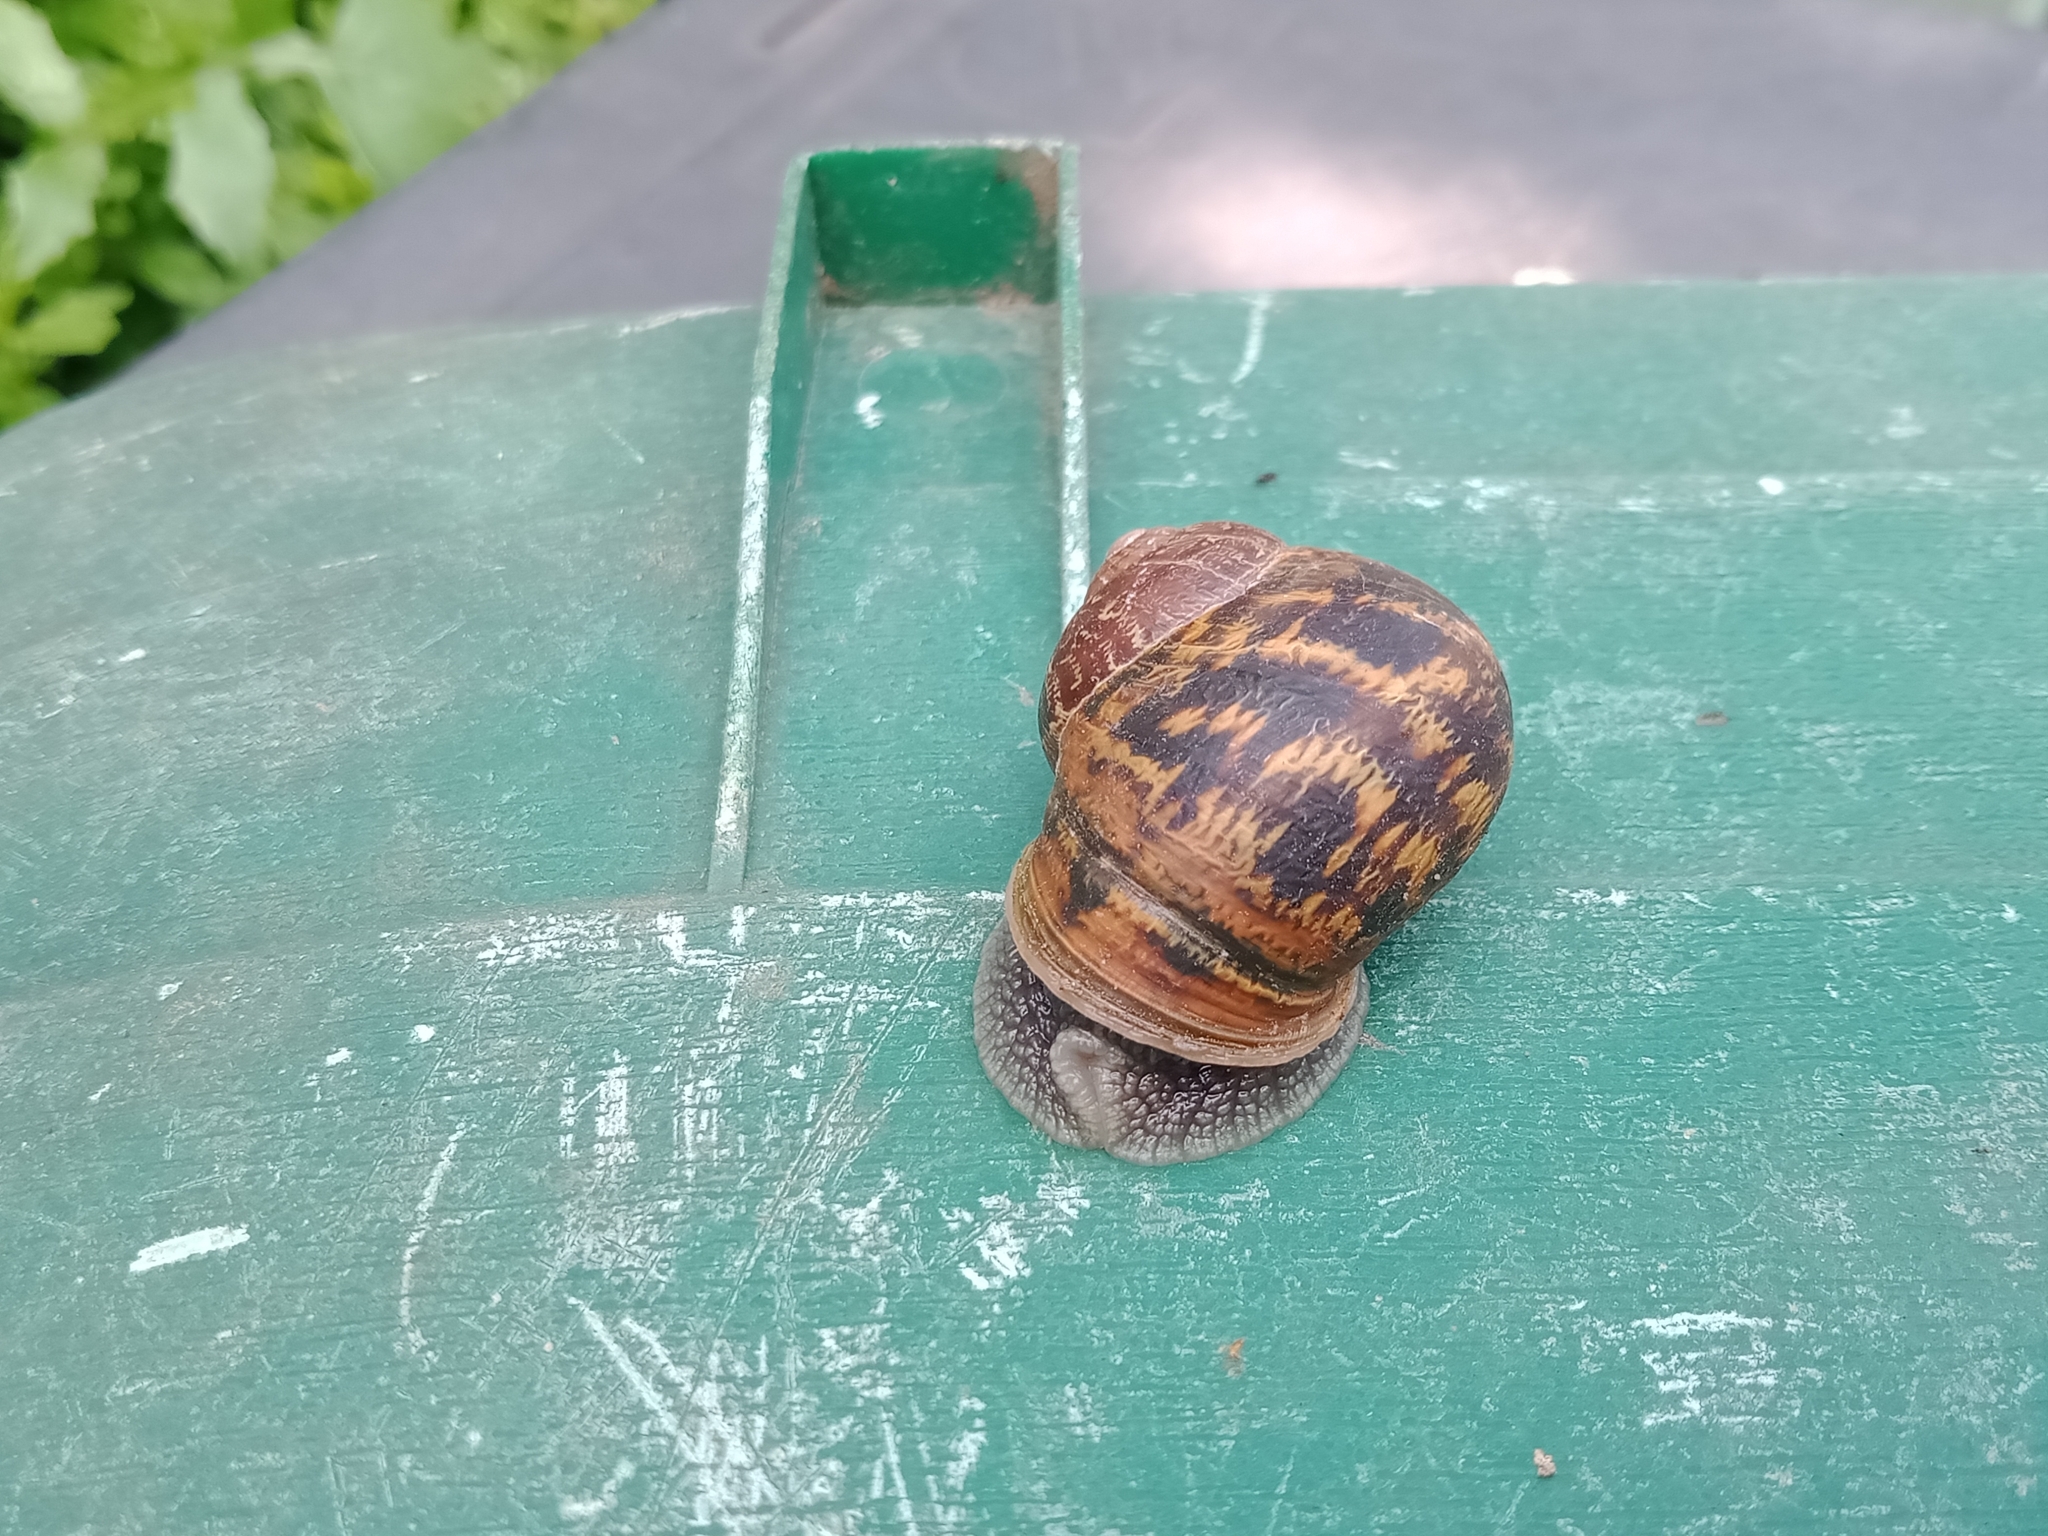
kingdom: Animalia
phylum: Mollusca
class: Gastropoda
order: Stylommatophora
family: Helicidae
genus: Cornu
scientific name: Cornu aspersum
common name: Brown garden snail
